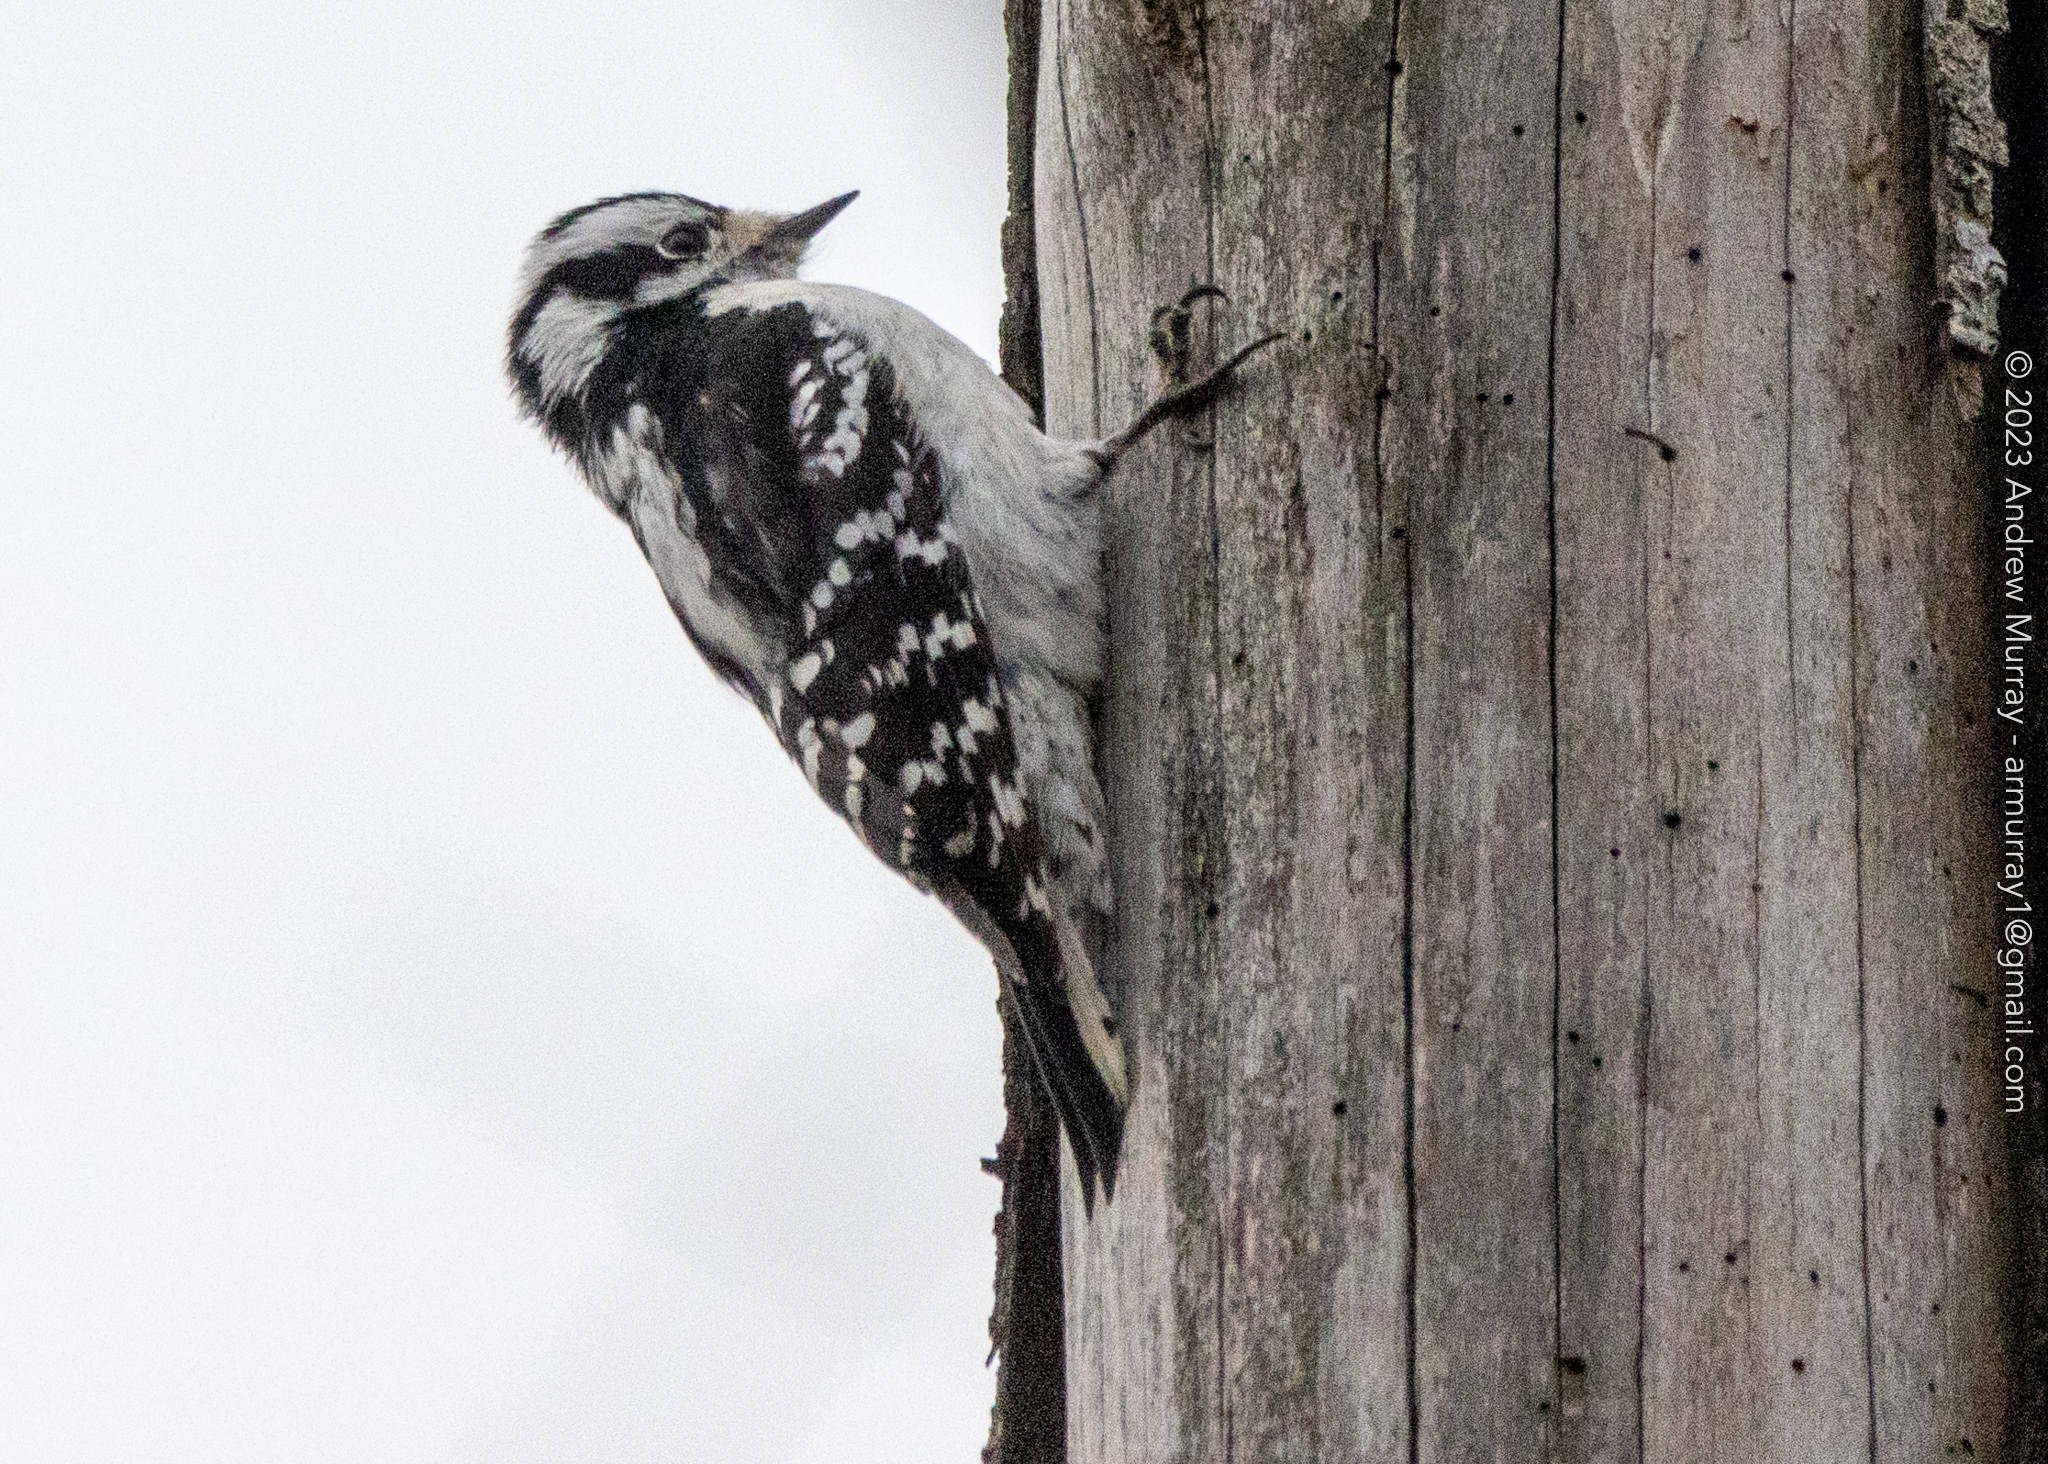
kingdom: Animalia
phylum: Chordata
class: Aves
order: Piciformes
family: Picidae
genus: Dryobates
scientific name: Dryobates pubescens
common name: Downy woodpecker
